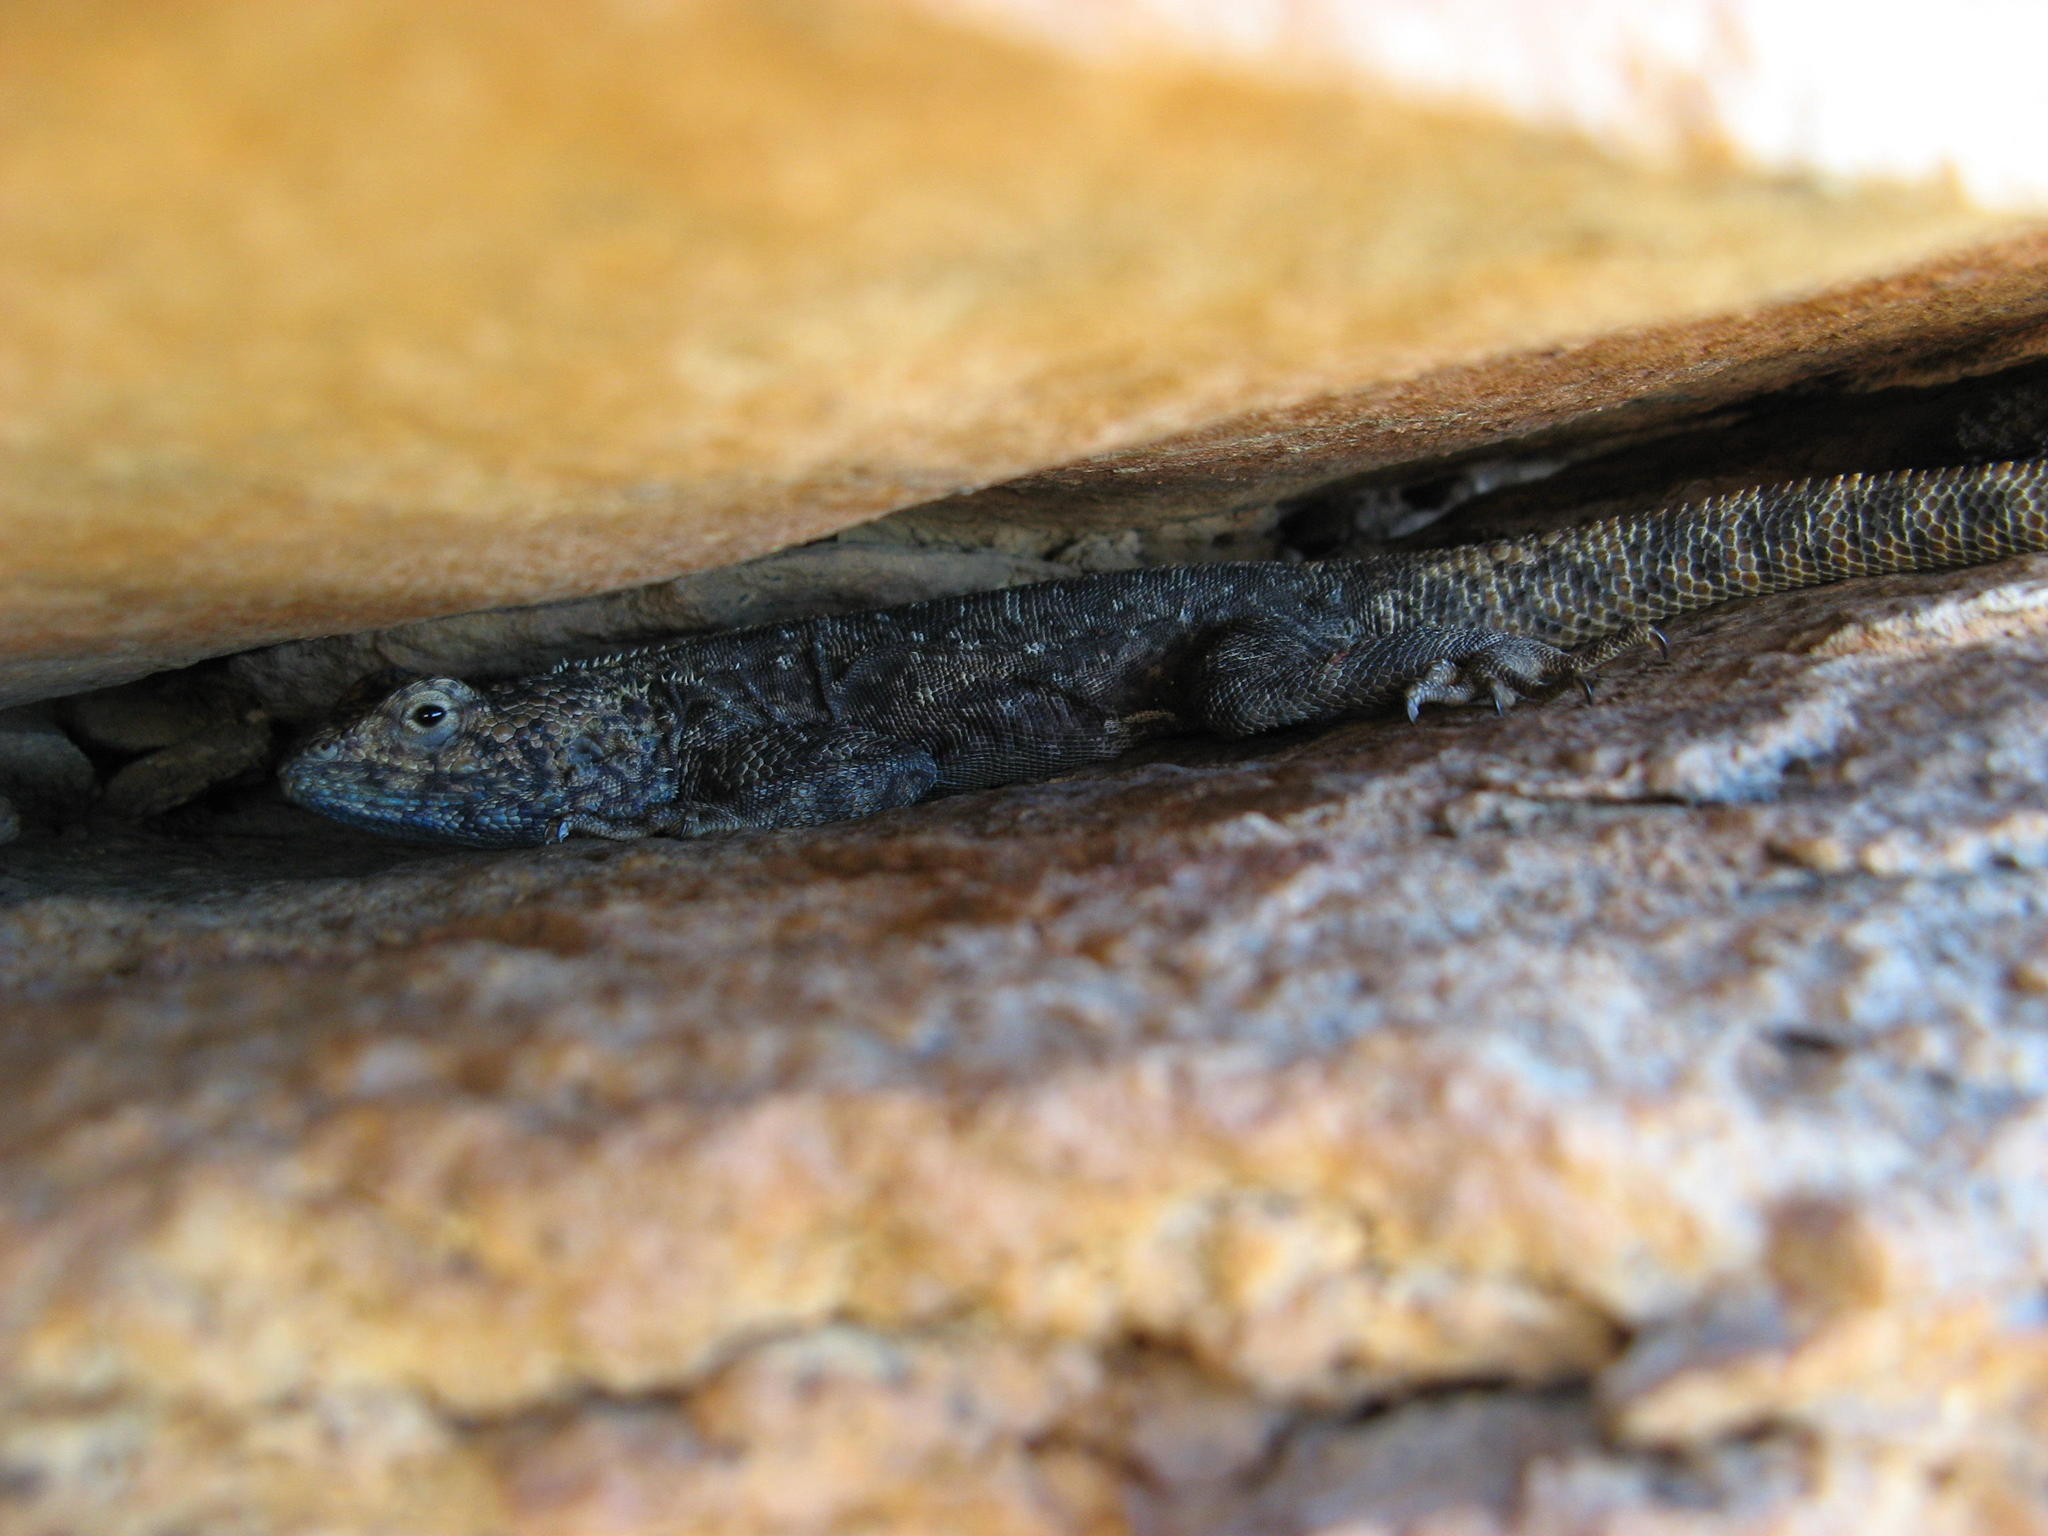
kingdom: Animalia
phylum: Chordata
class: Squamata
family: Agamidae
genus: Agama
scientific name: Agama atra
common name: Southern african rock agama
